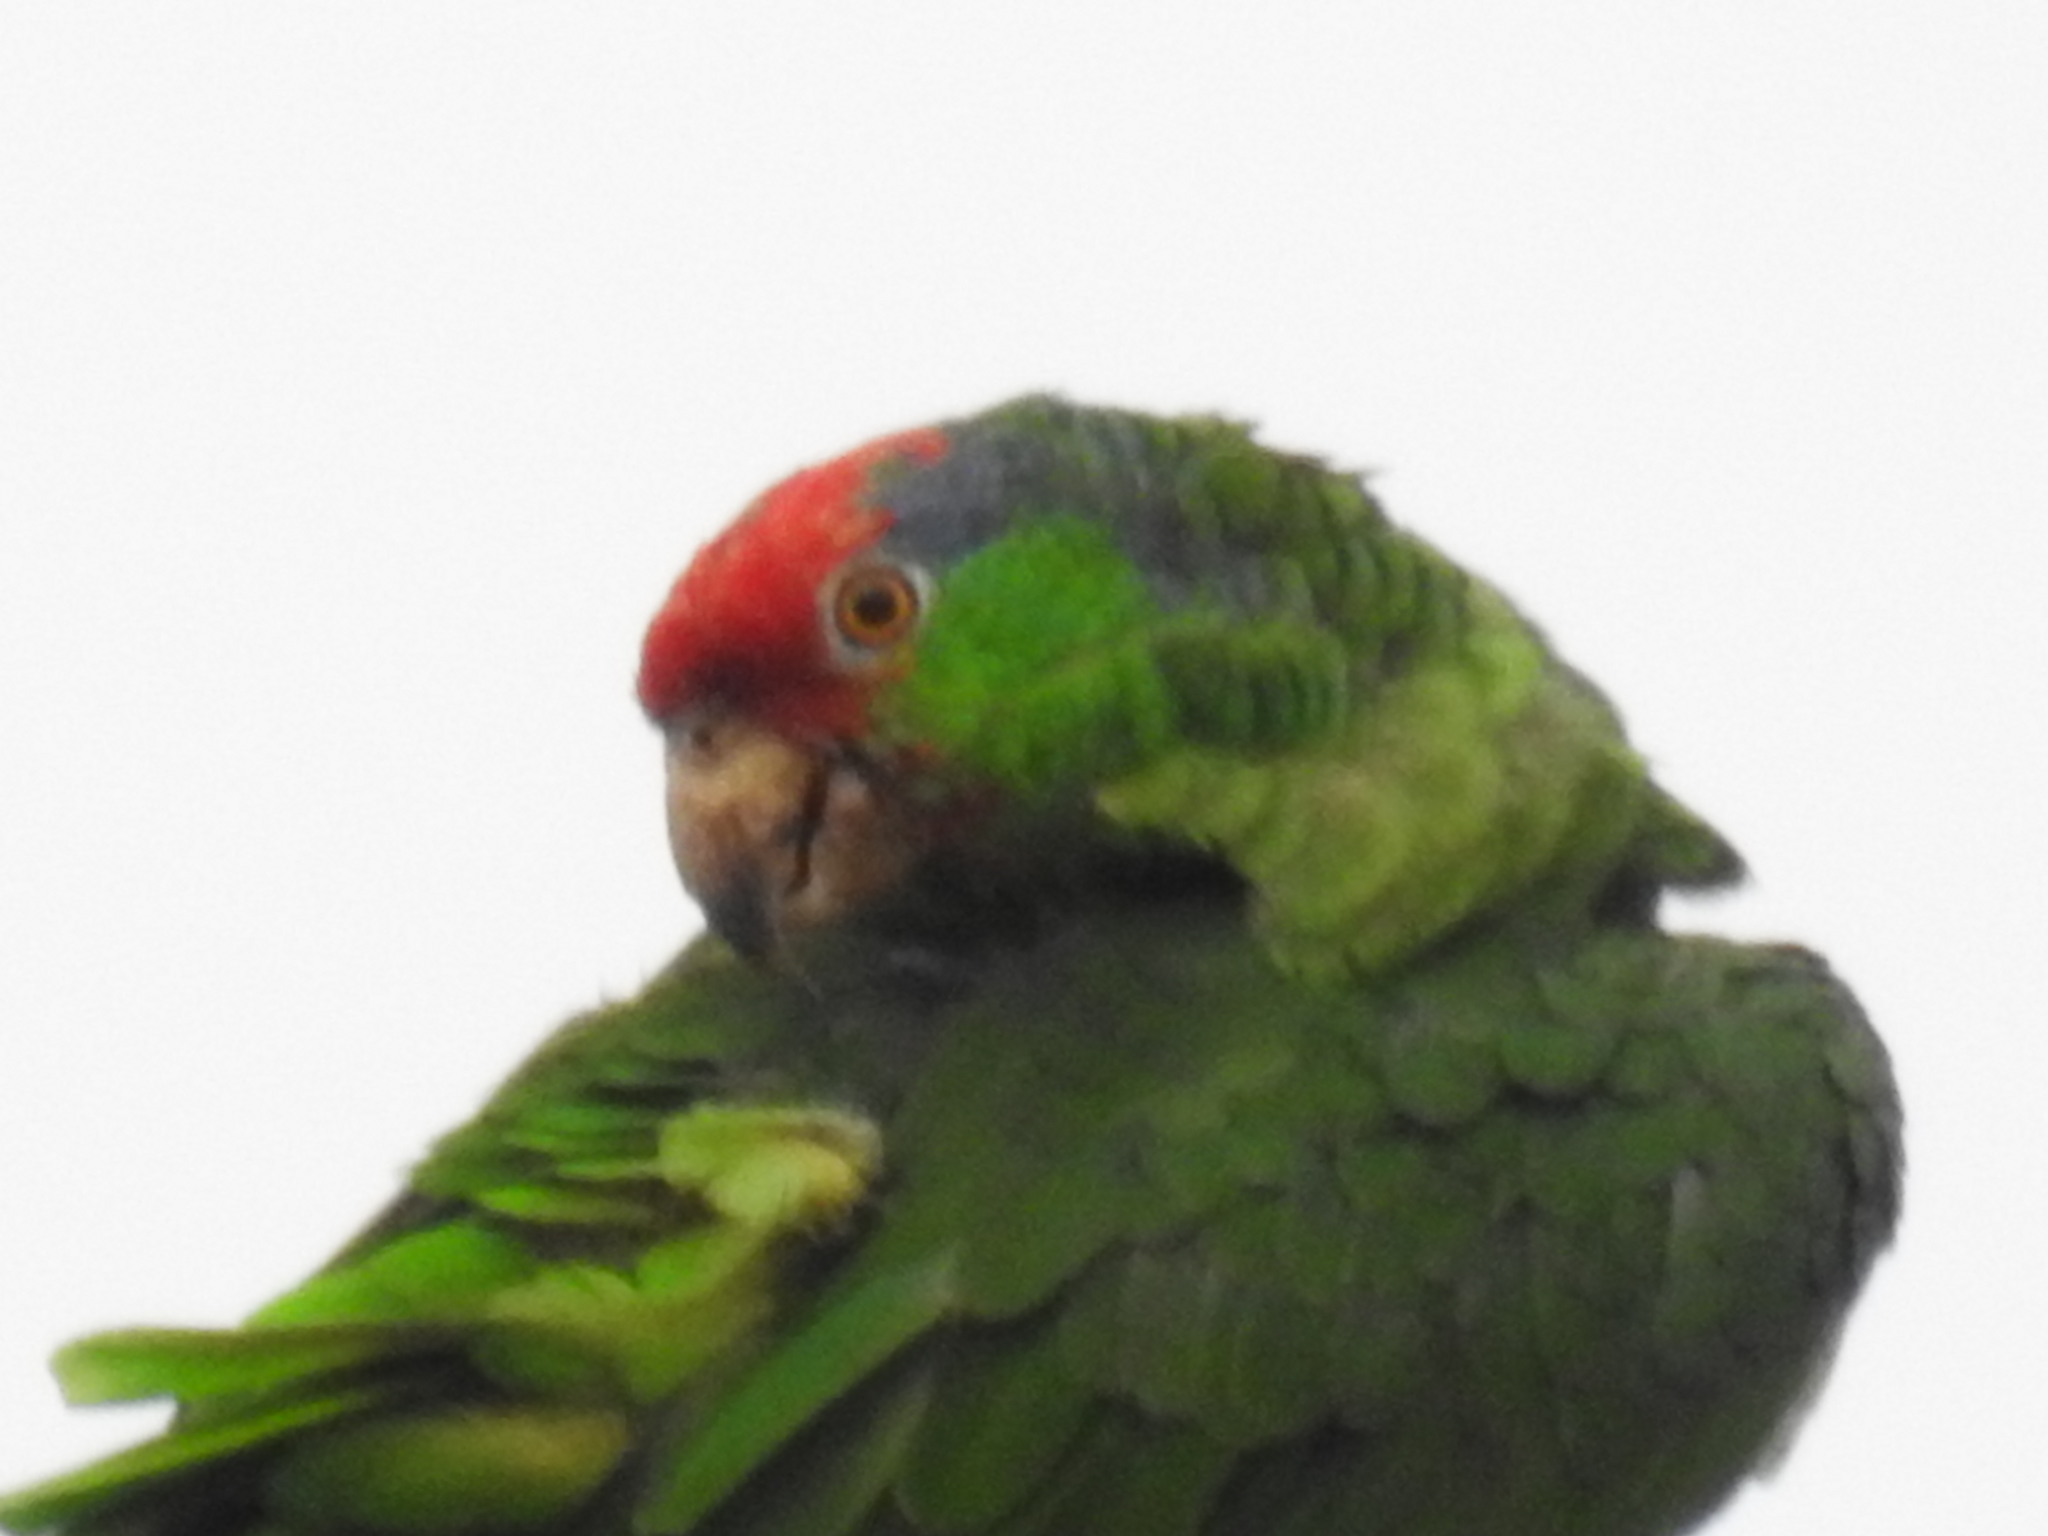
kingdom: Animalia
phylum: Chordata
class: Aves
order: Psittaciformes
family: Psittacidae
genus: Amazona
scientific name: Amazona viridigenalis
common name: Red-crowned amazon
